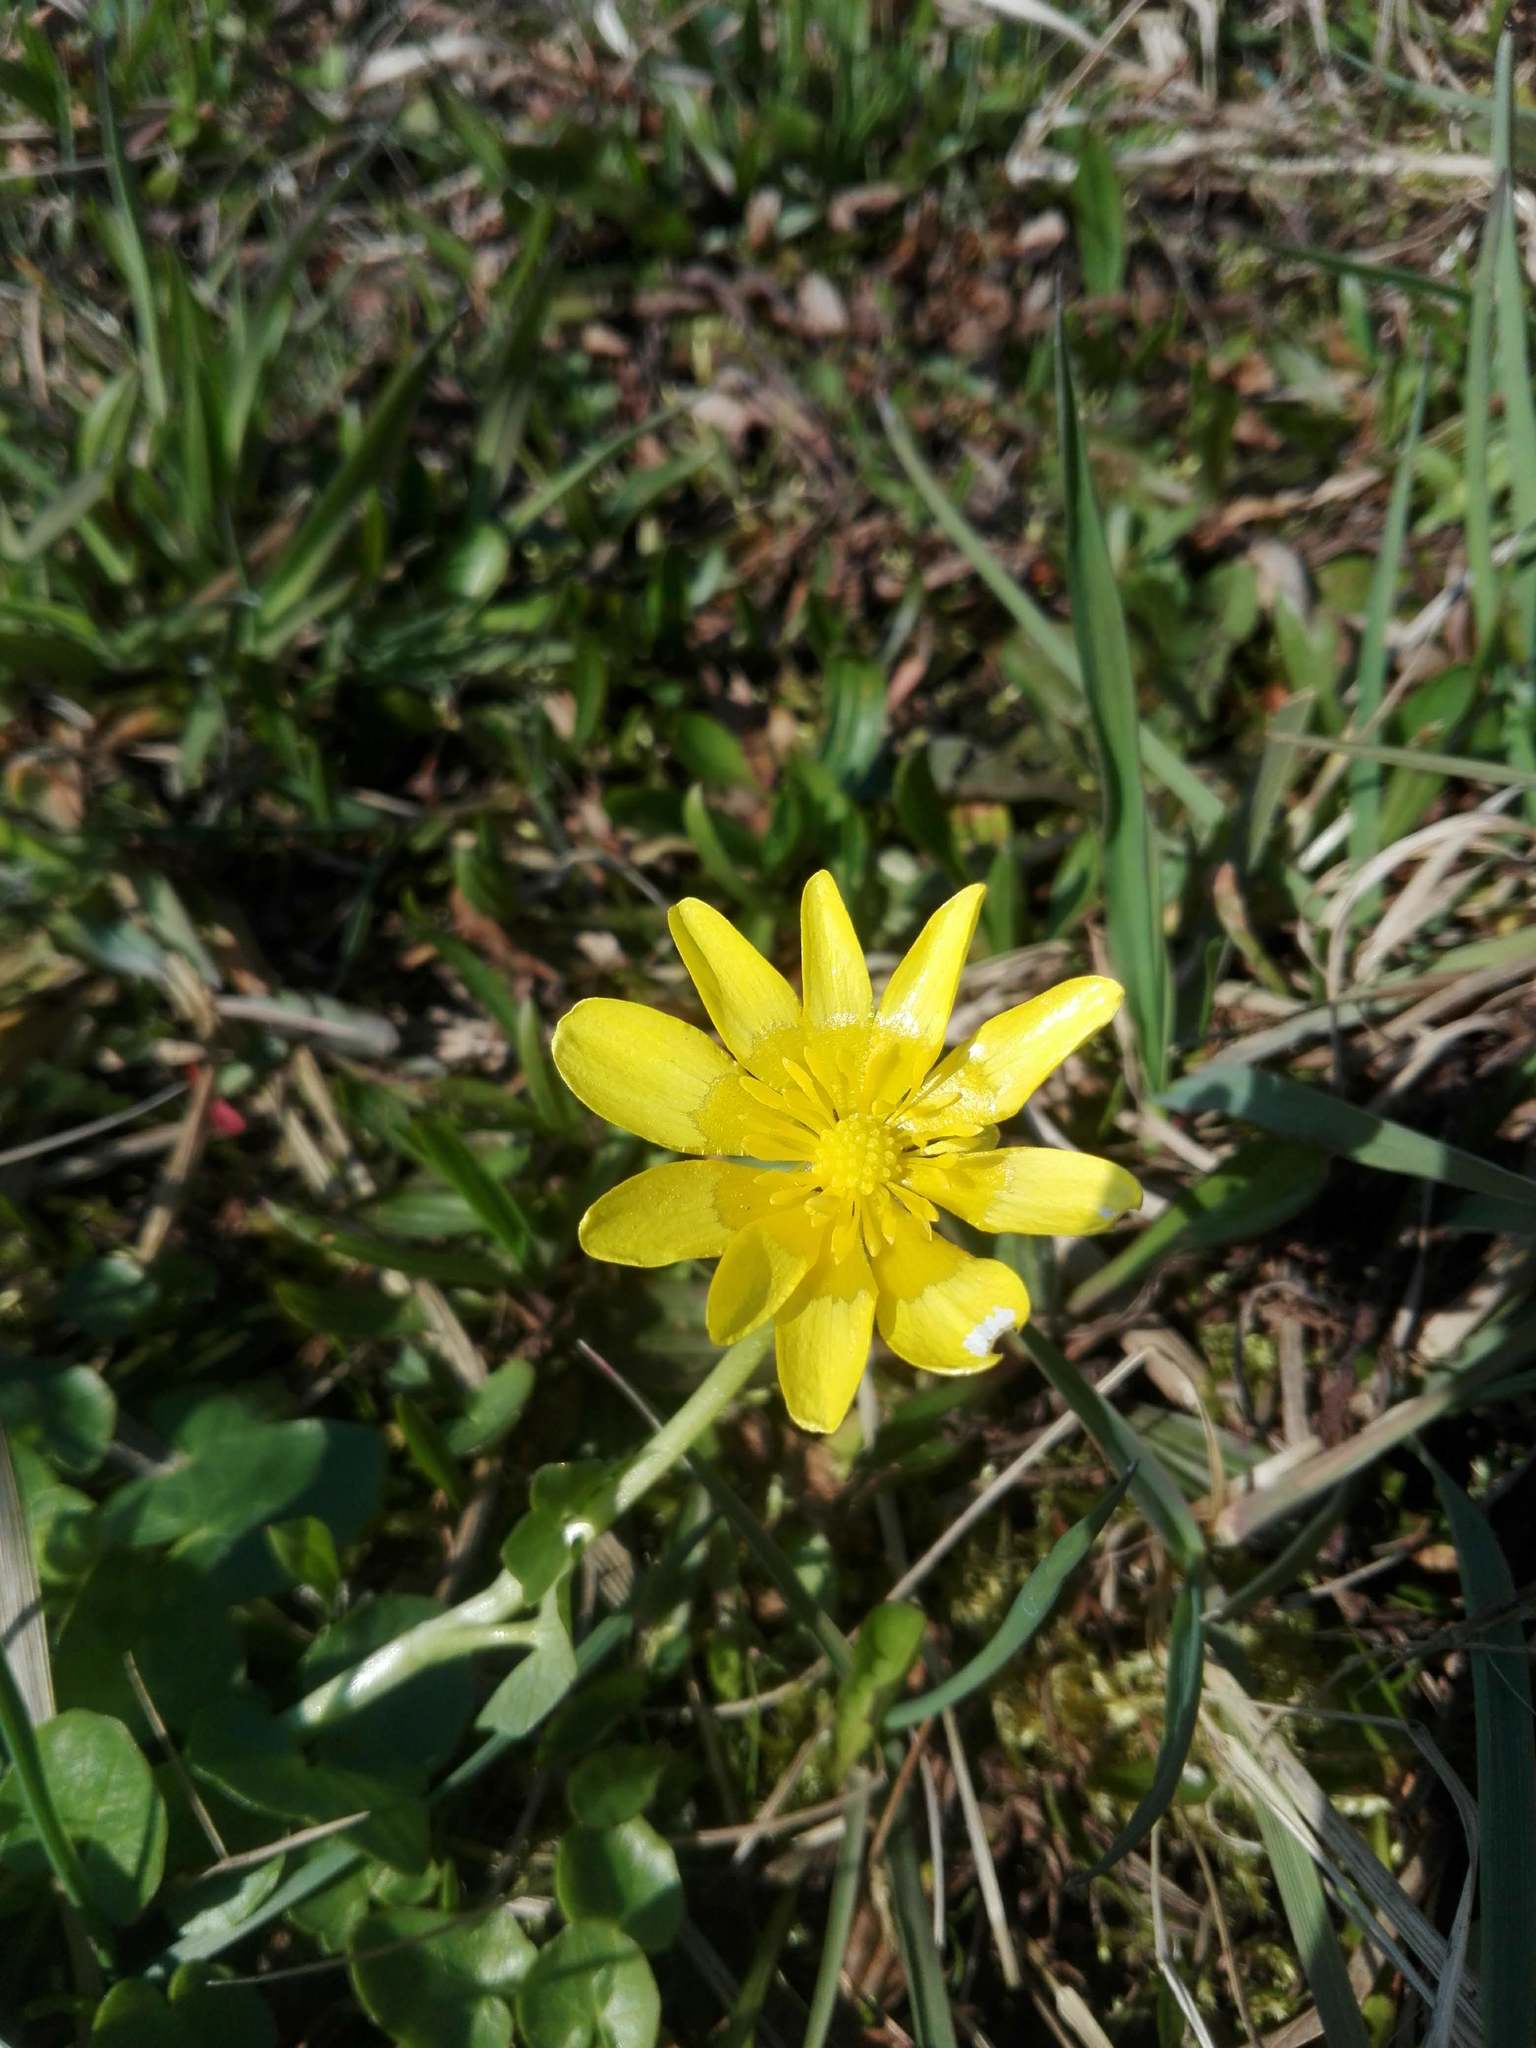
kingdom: Plantae
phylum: Tracheophyta
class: Magnoliopsida
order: Ranunculales
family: Ranunculaceae
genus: Ficaria
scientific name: Ficaria verna
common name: Lesser celandine
